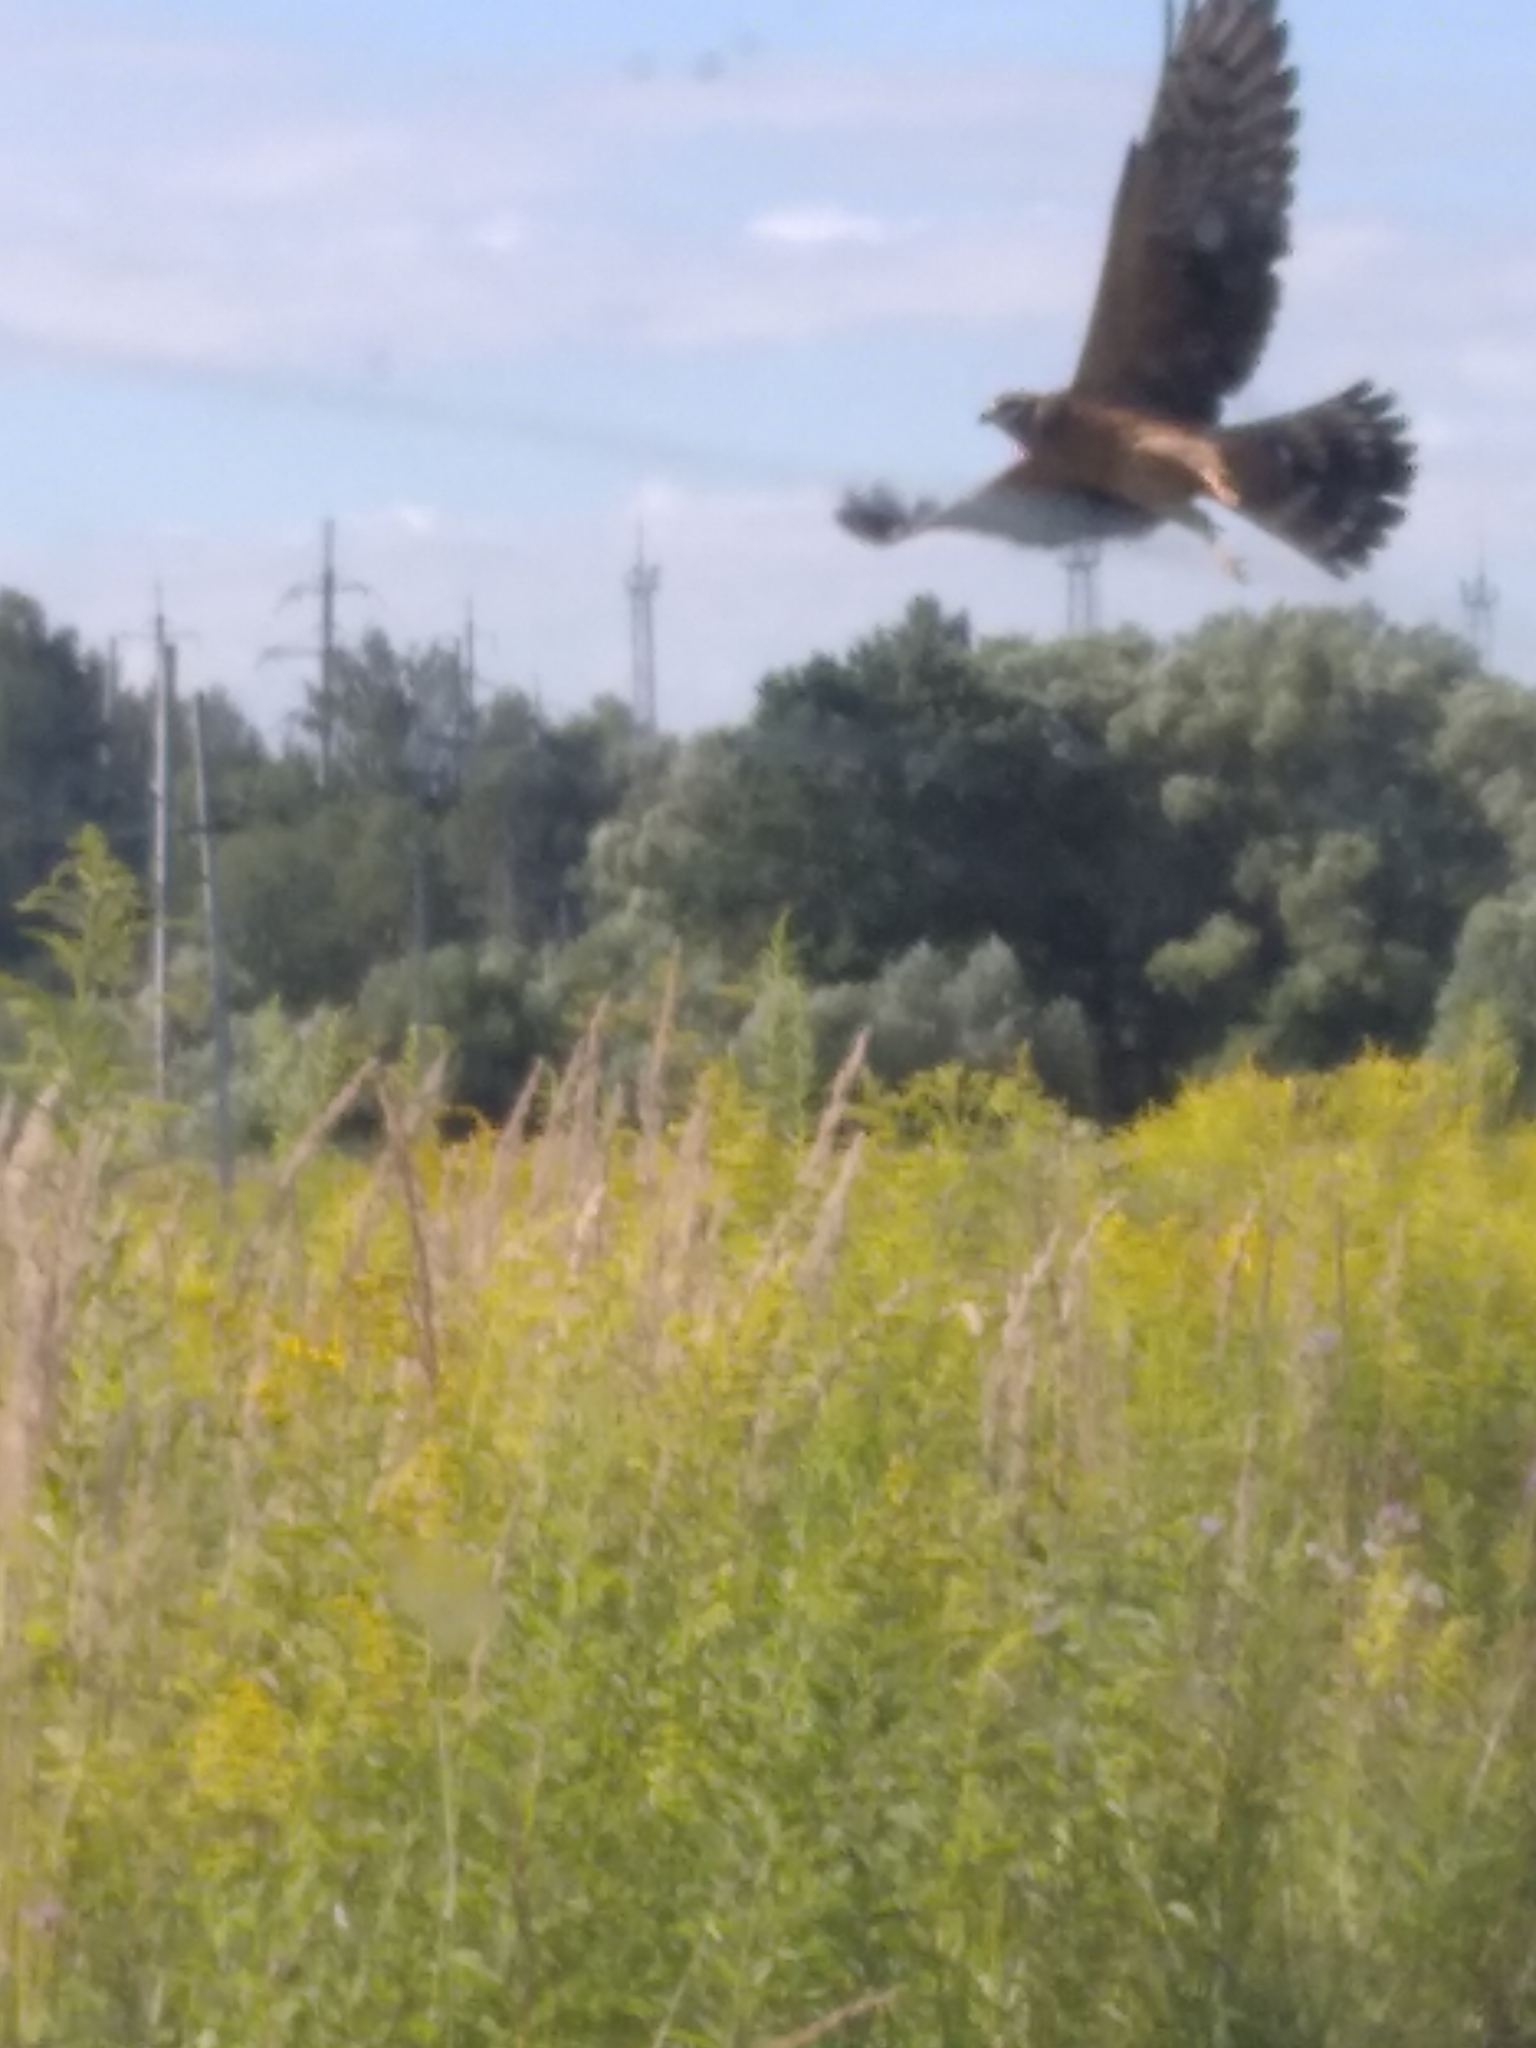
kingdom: Animalia
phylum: Chordata
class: Aves
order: Accipitriformes
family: Accipitridae
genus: Circus
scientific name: Circus macrourus
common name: Pallid harrier
